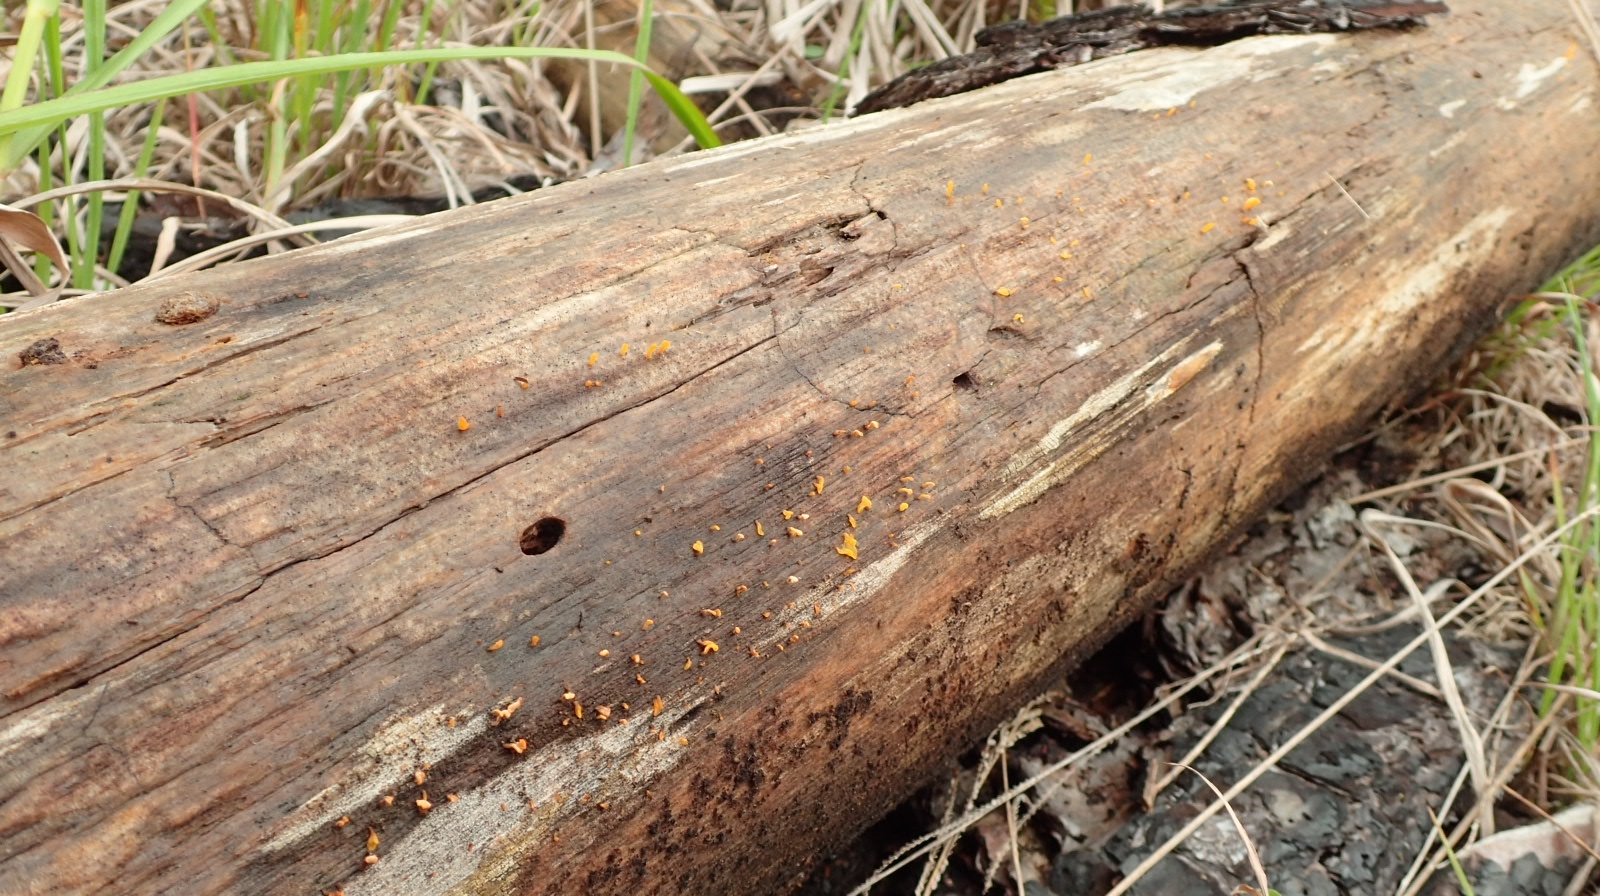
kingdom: Fungi
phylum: Basidiomycota
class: Dacrymycetes
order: Dacrymycetales
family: Dacrymycetaceae
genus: Dacrymyces
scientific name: Dacrymyces spathularius
